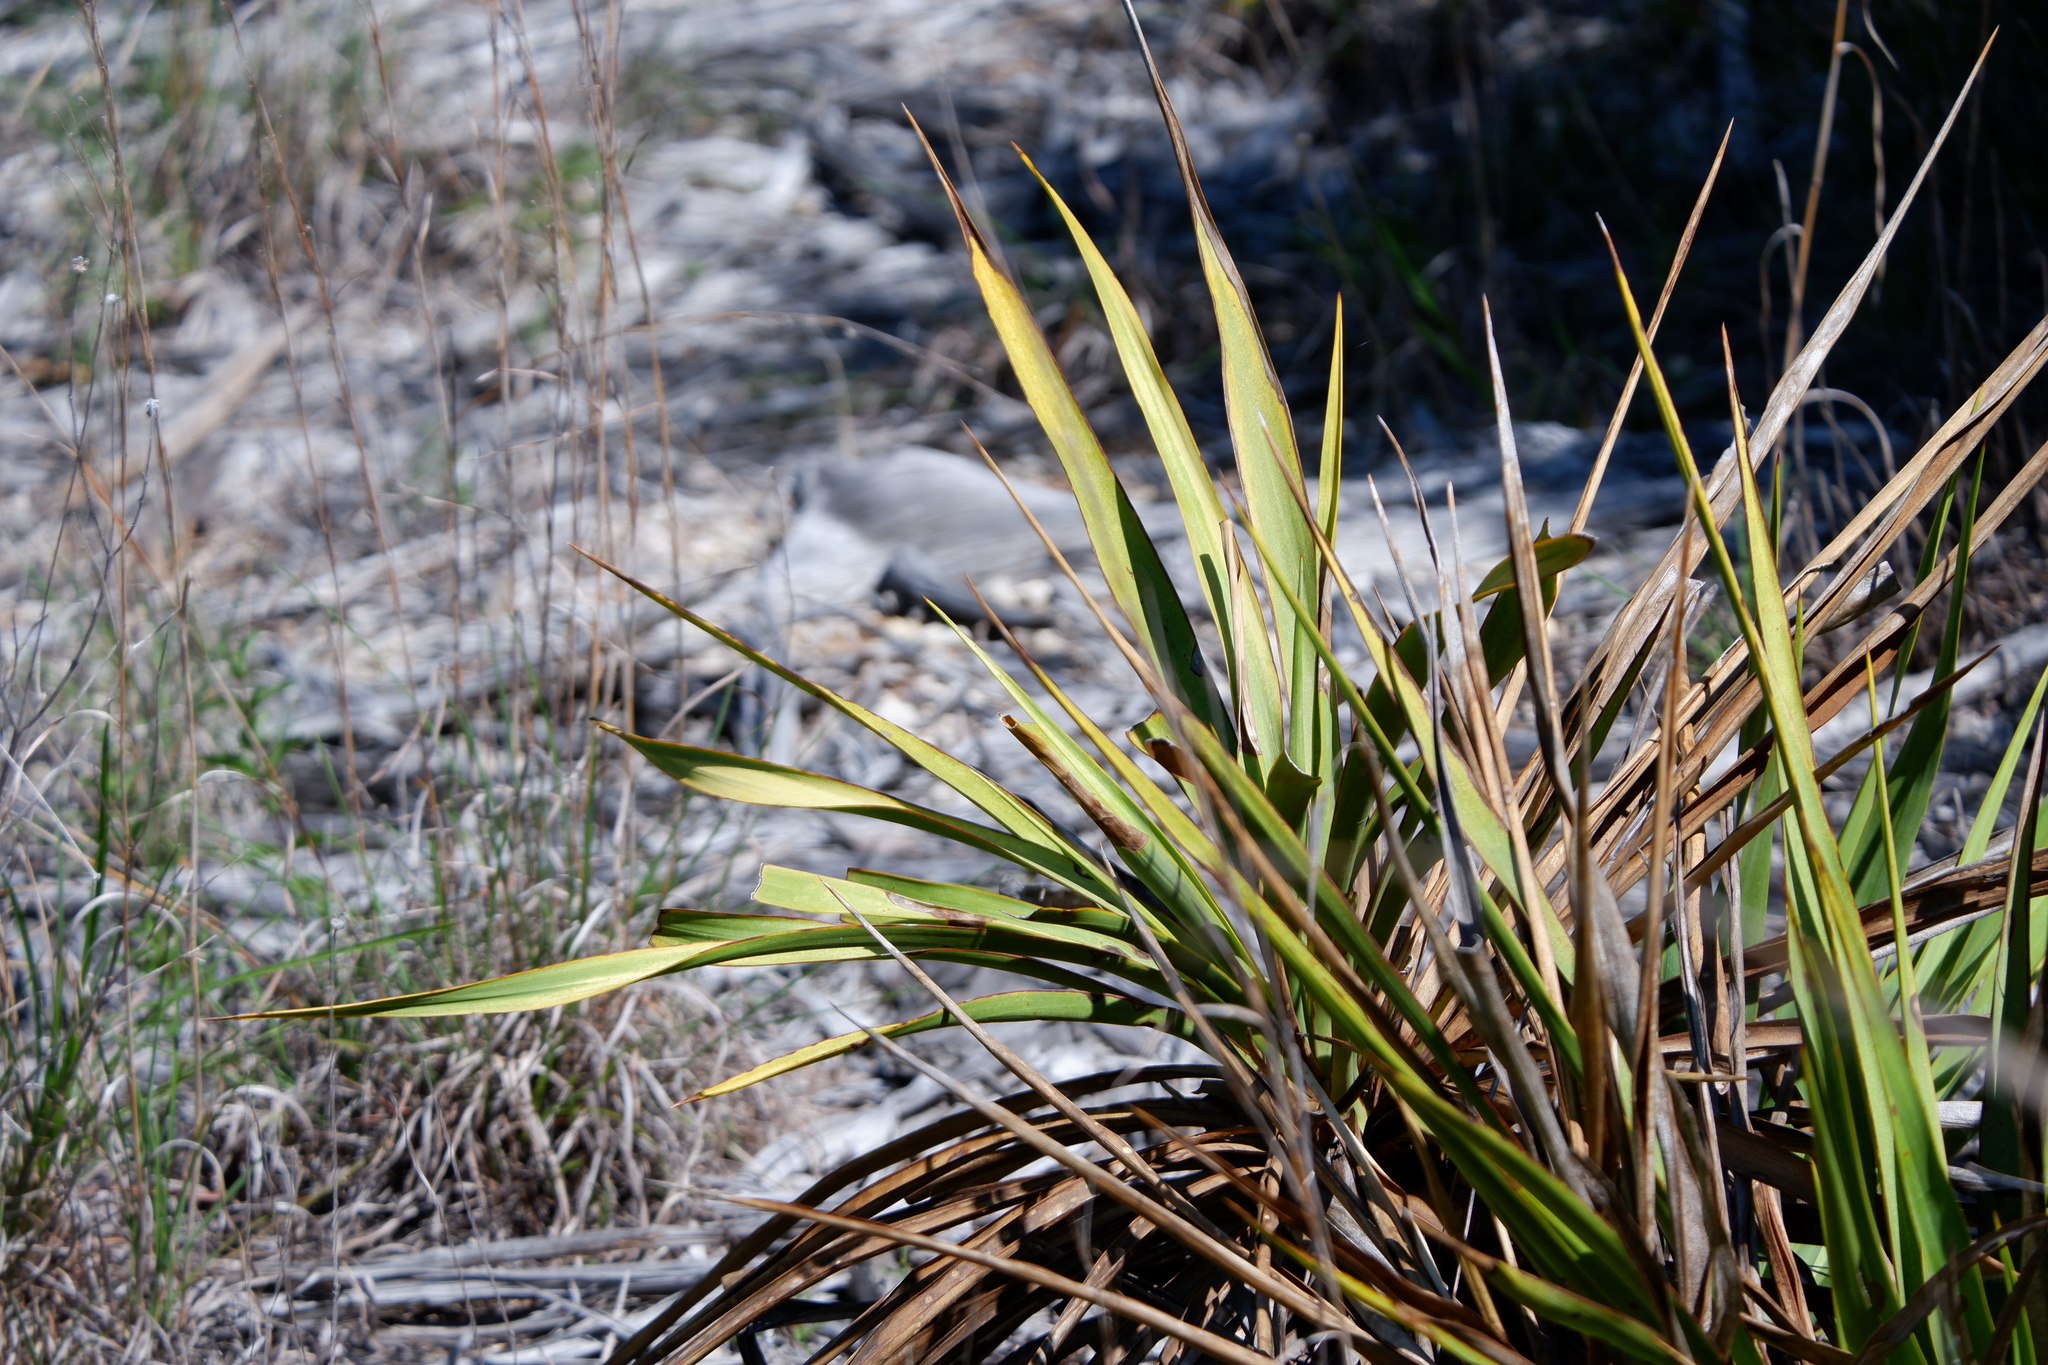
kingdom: Plantae
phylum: Tracheophyta
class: Liliopsida
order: Asparagales
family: Asparagaceae
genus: Yucca
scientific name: Yucca rupicola
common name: Twisted-leaf spanish-dagger
